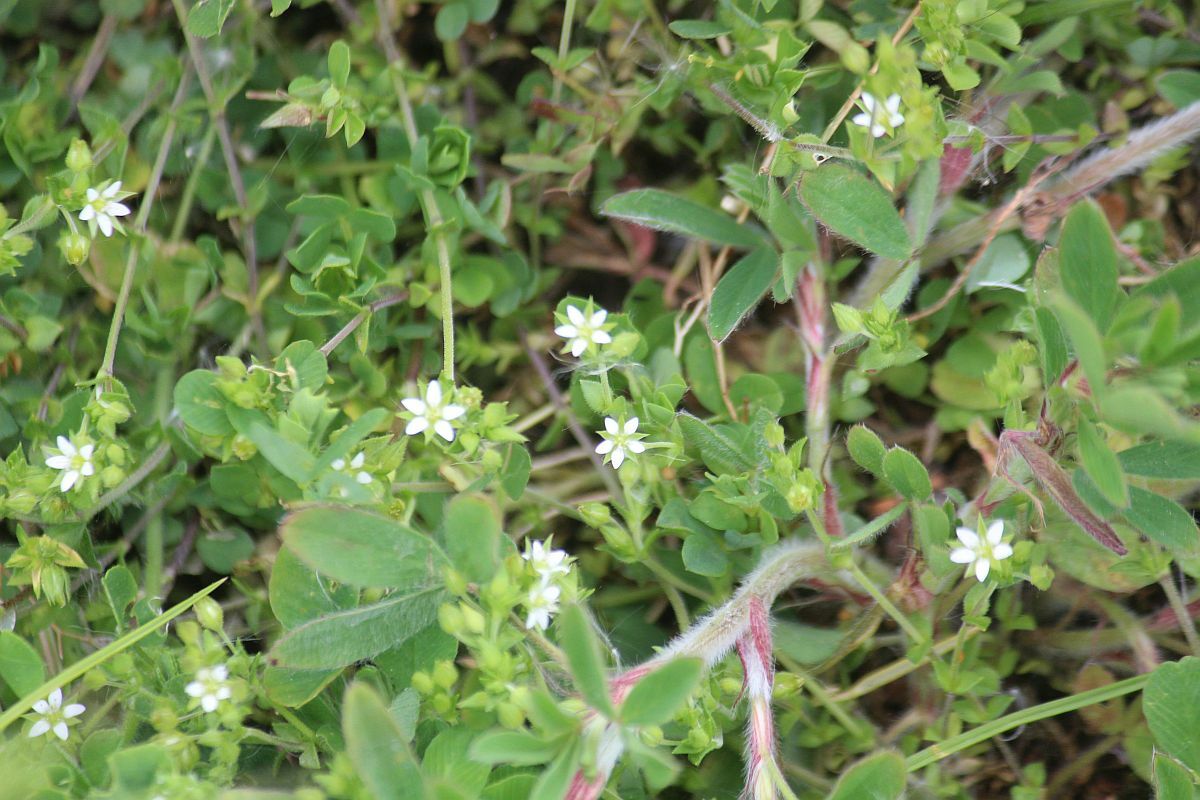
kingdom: Plantae
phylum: Tracheophyta
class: Magnoliopsida
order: Caryophyllales
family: Caryophyllaceae
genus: Arenaria
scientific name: Arenaria serpyllifolia
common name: Thyme-leaved sandwort
